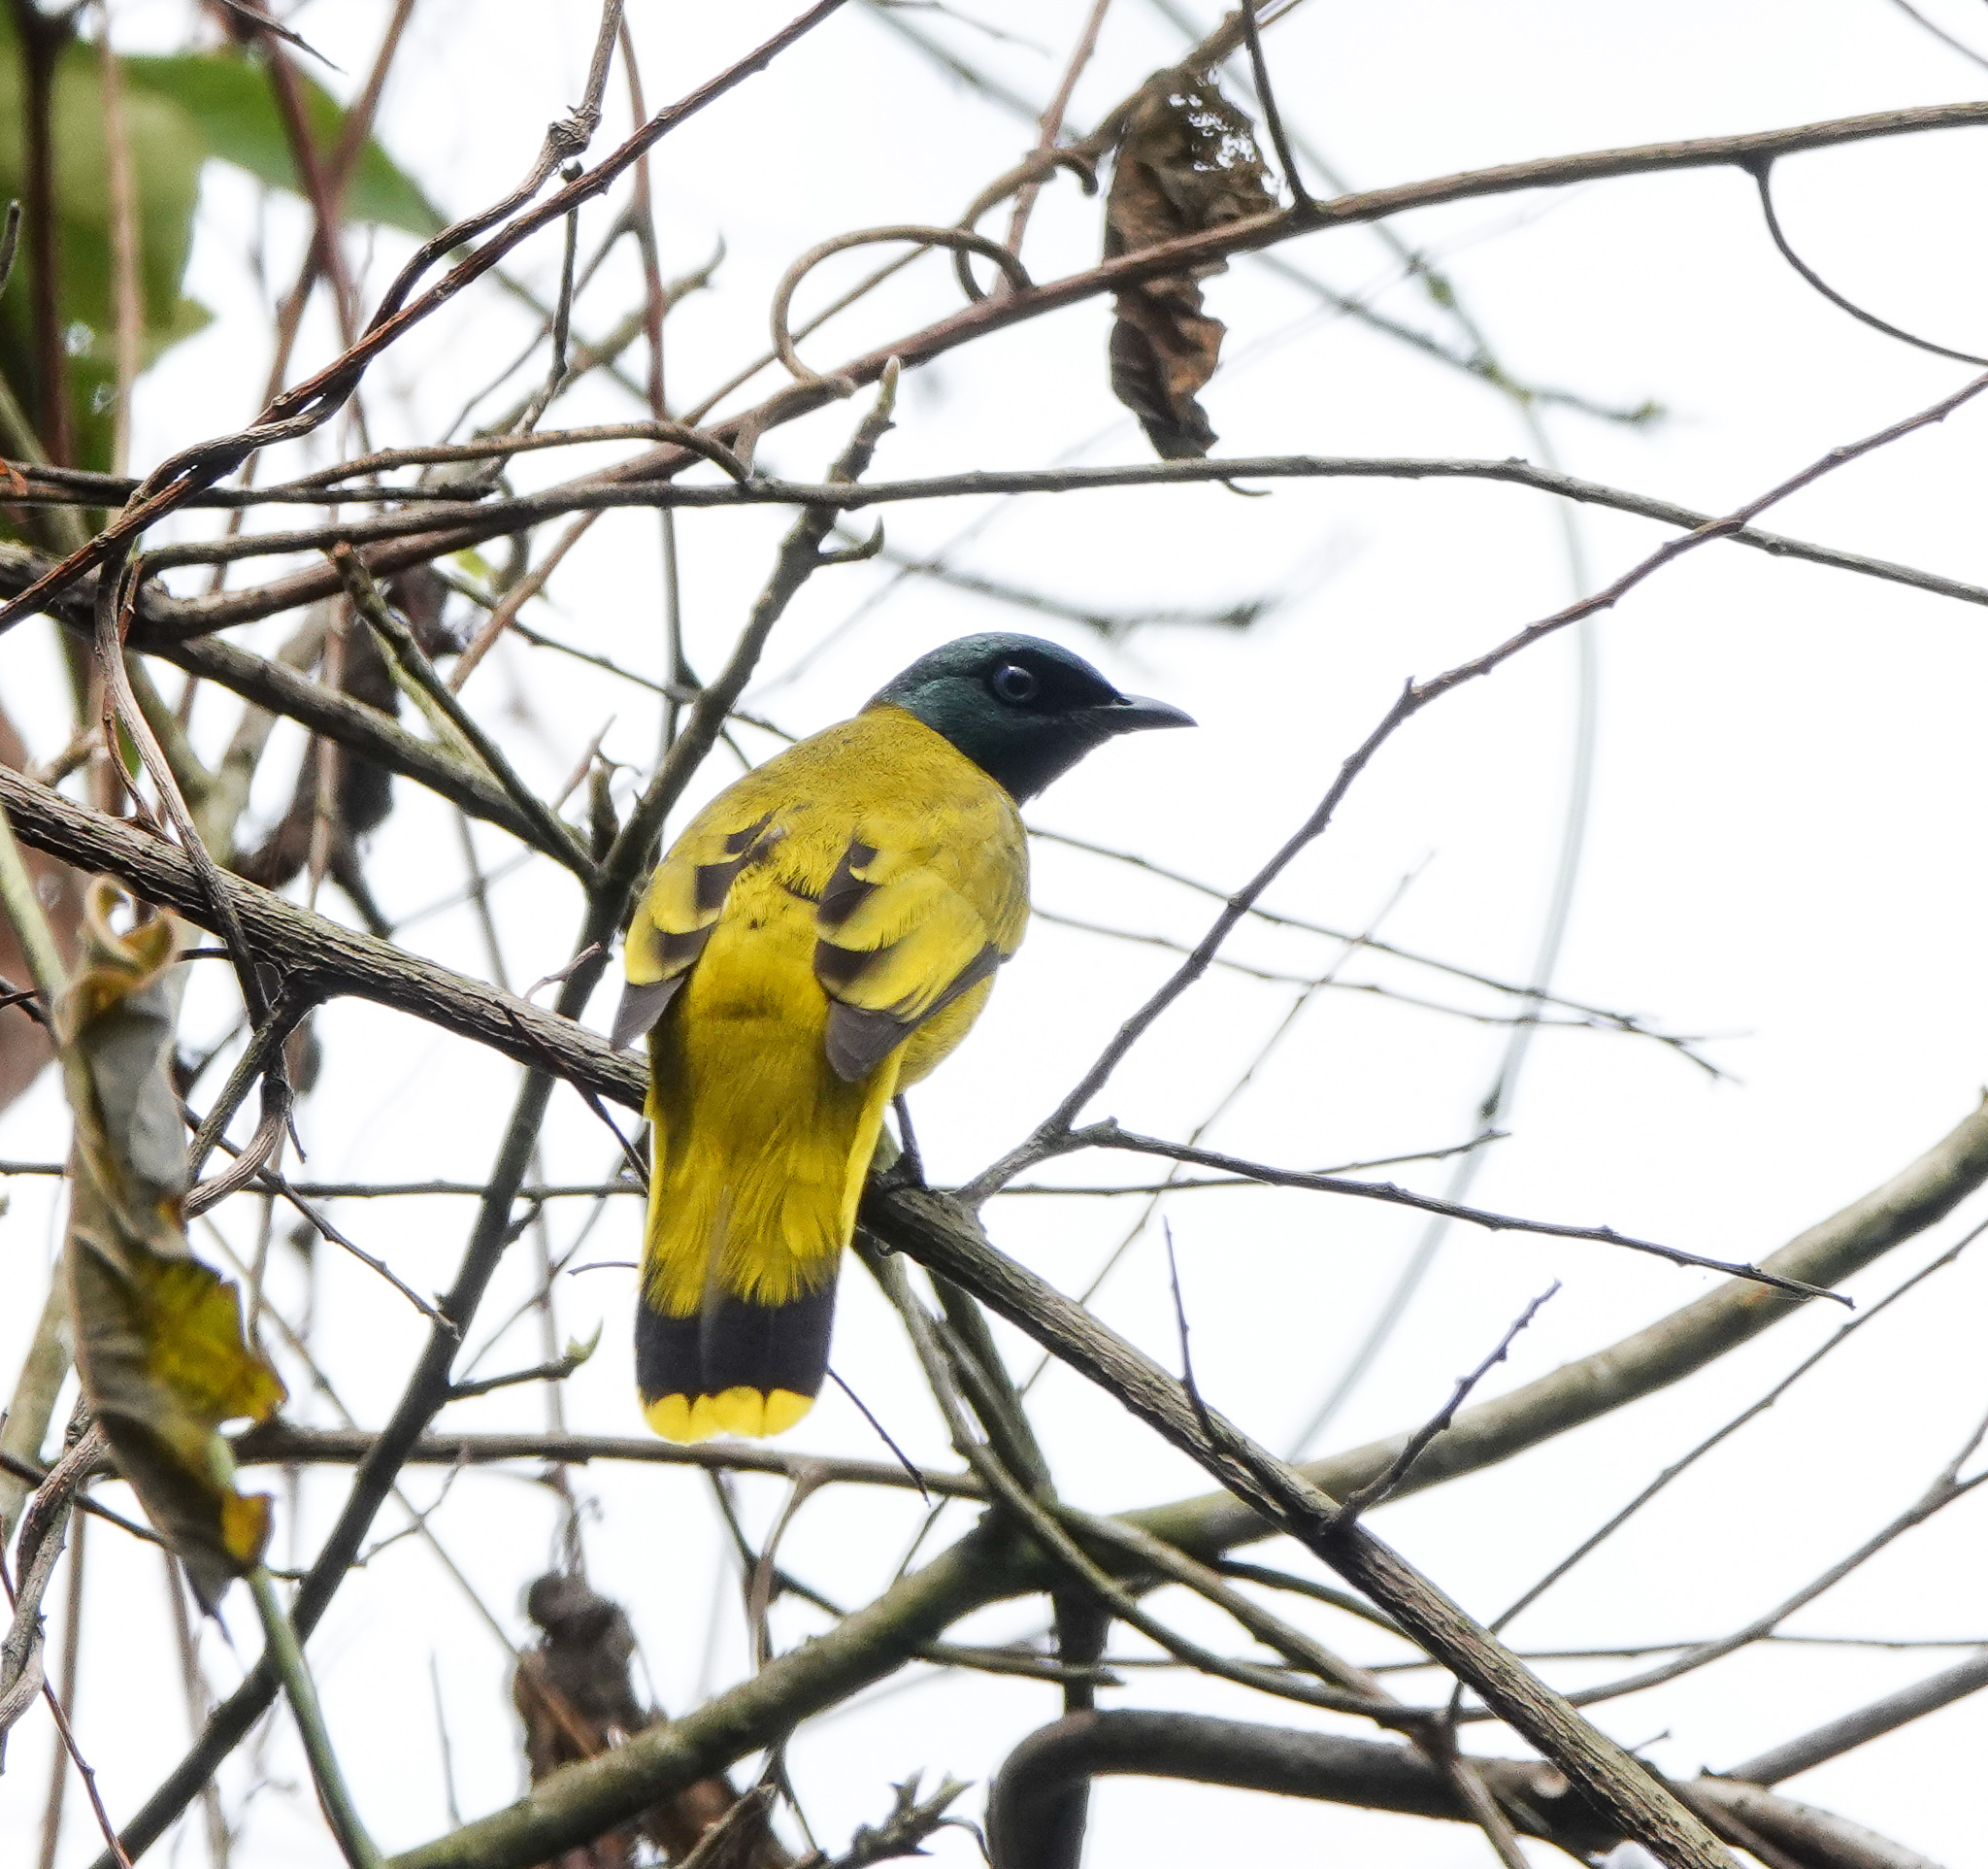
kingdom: Animalia
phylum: Chordata
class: Aves
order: Passeriformes
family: Pycnonotidae
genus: Microtarsus
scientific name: Microtarsus
